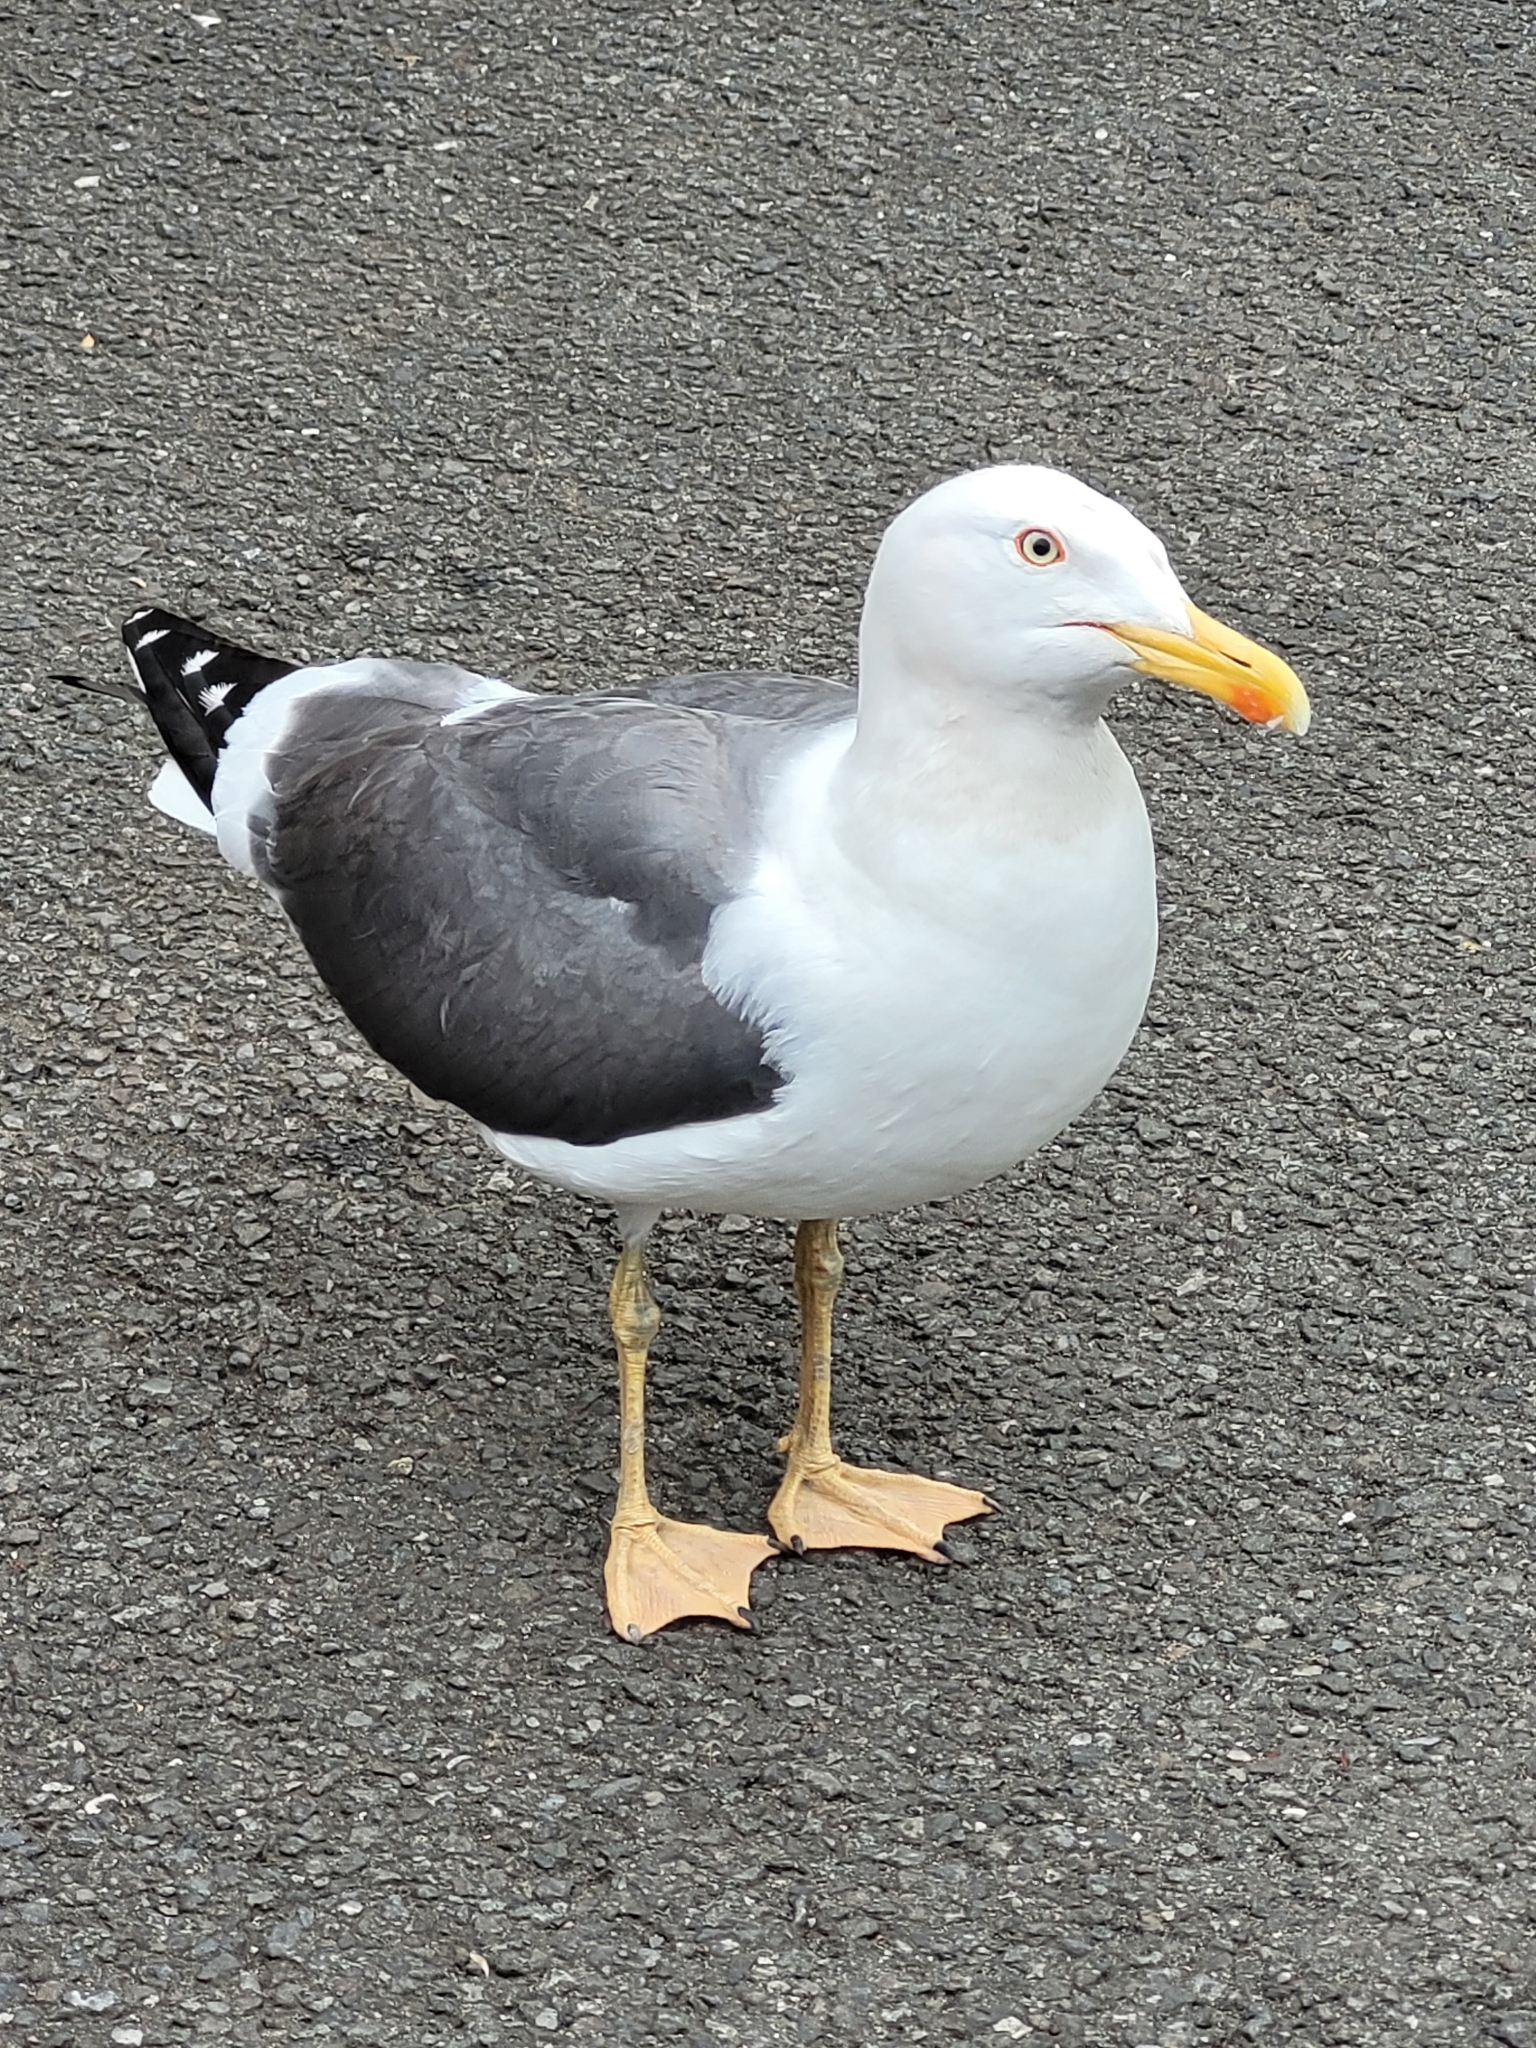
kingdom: Animalia
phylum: Chordata
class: Aves
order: Charadriiformes
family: Laridae
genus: Larus
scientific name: Larus fuscus
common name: Lesser black-backed gull
